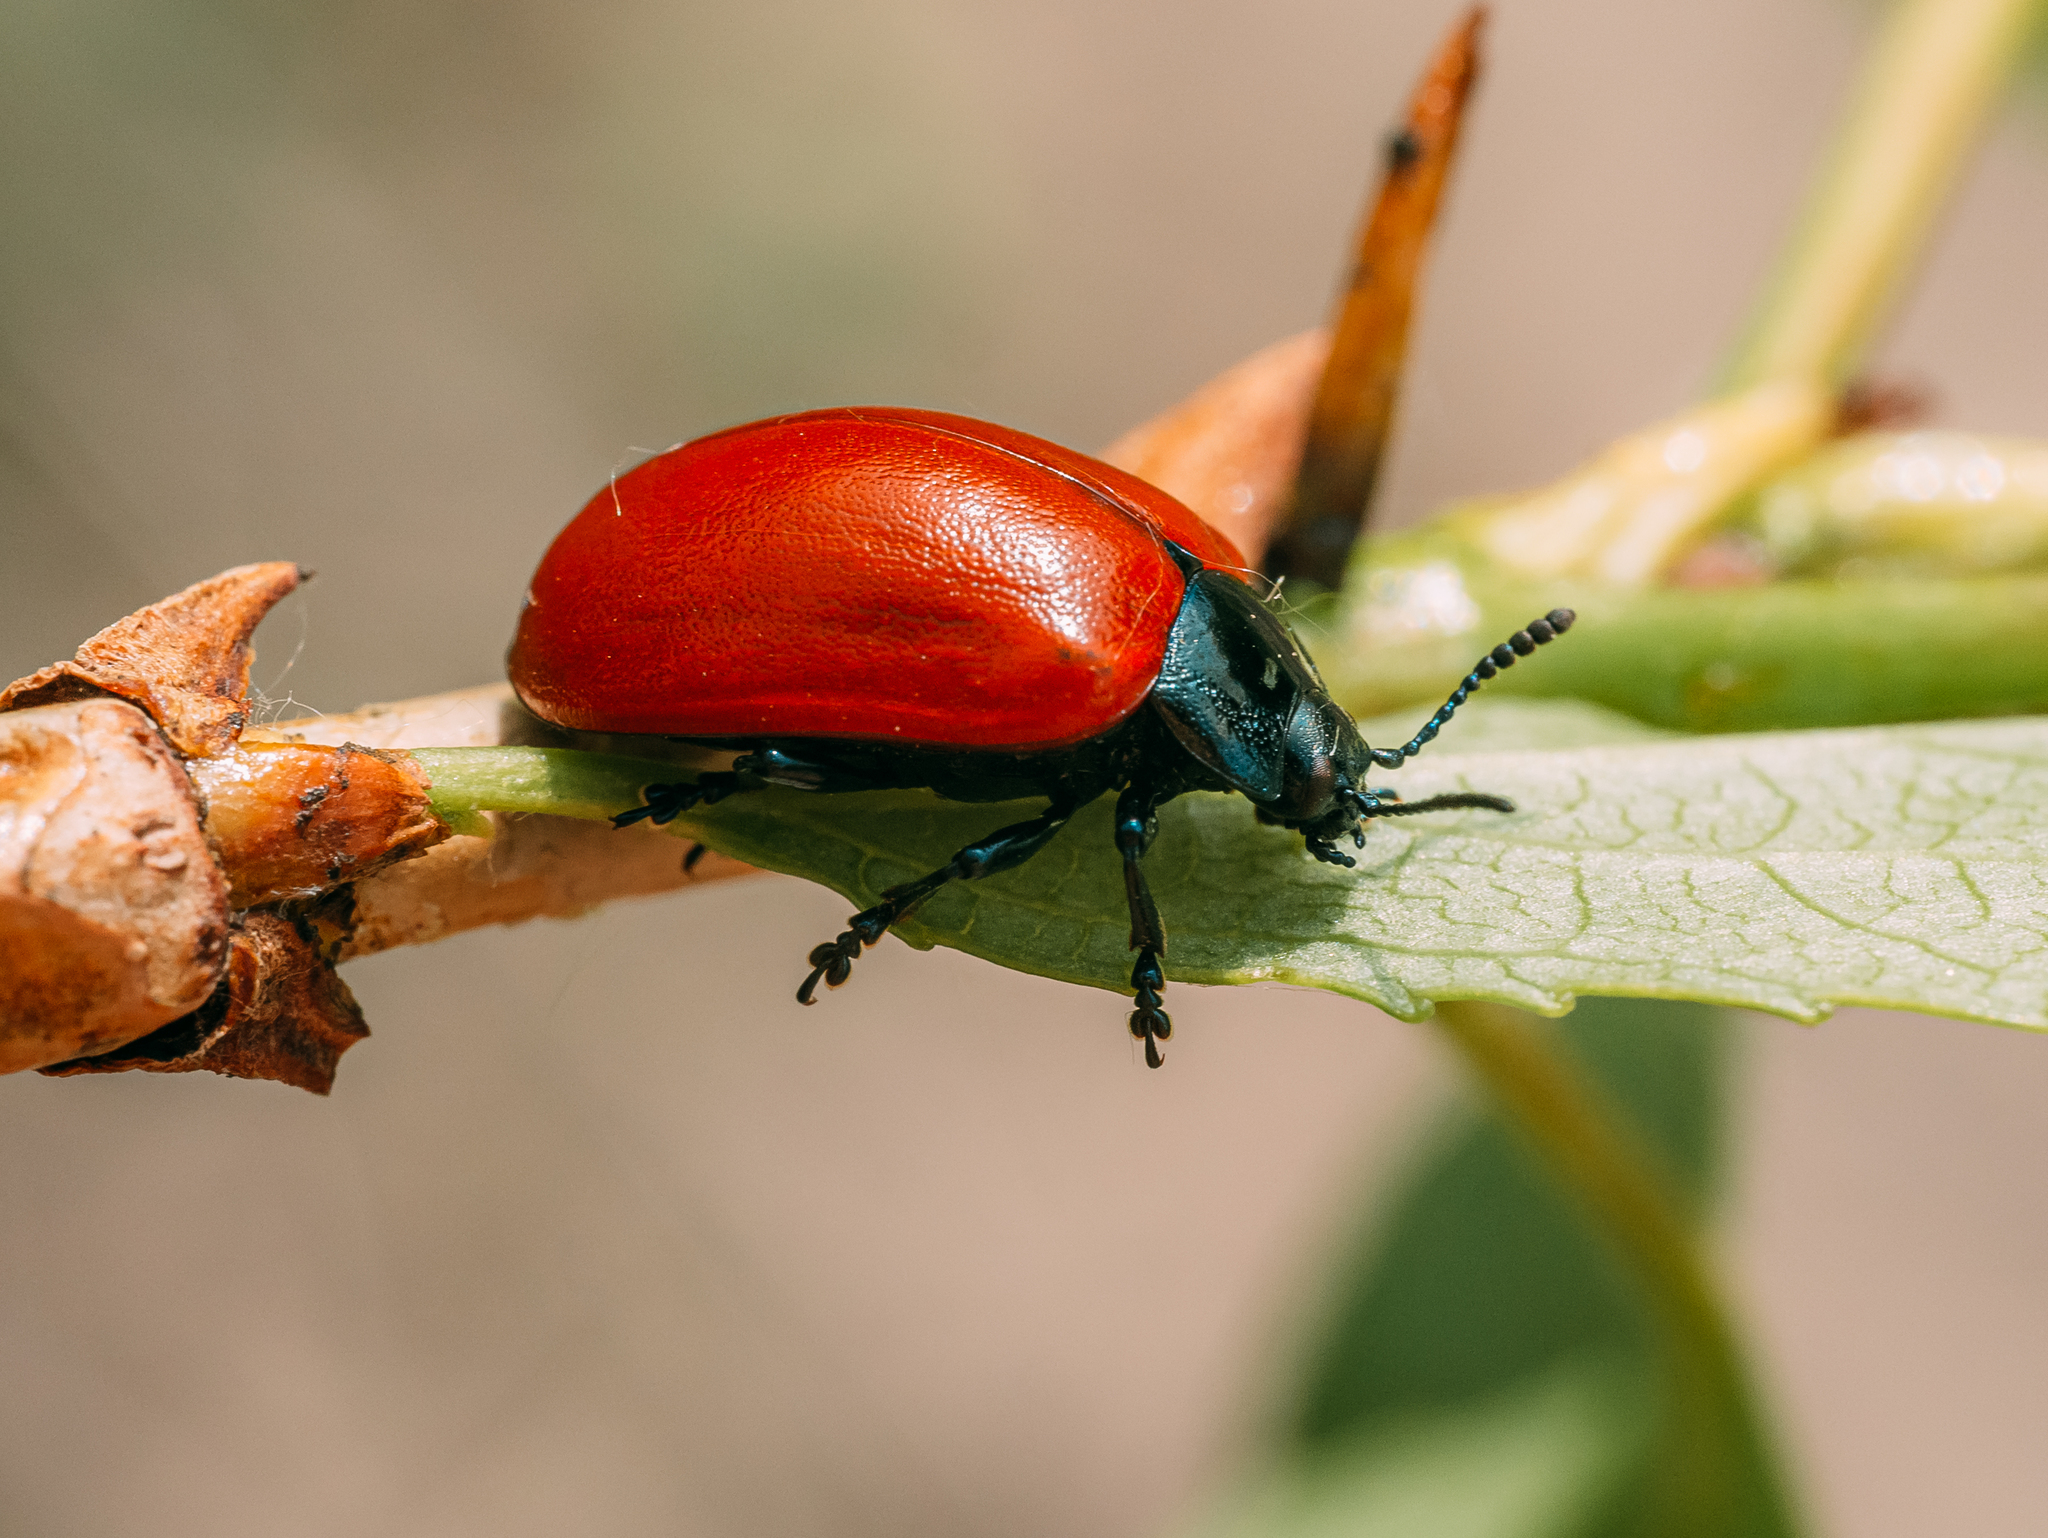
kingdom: Animalia
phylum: Arthropoda
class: Insecta
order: Coleoptera
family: Chrysomelidae
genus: Chrysomela
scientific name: Chrysomela populi
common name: Red poplar leaf beetle
